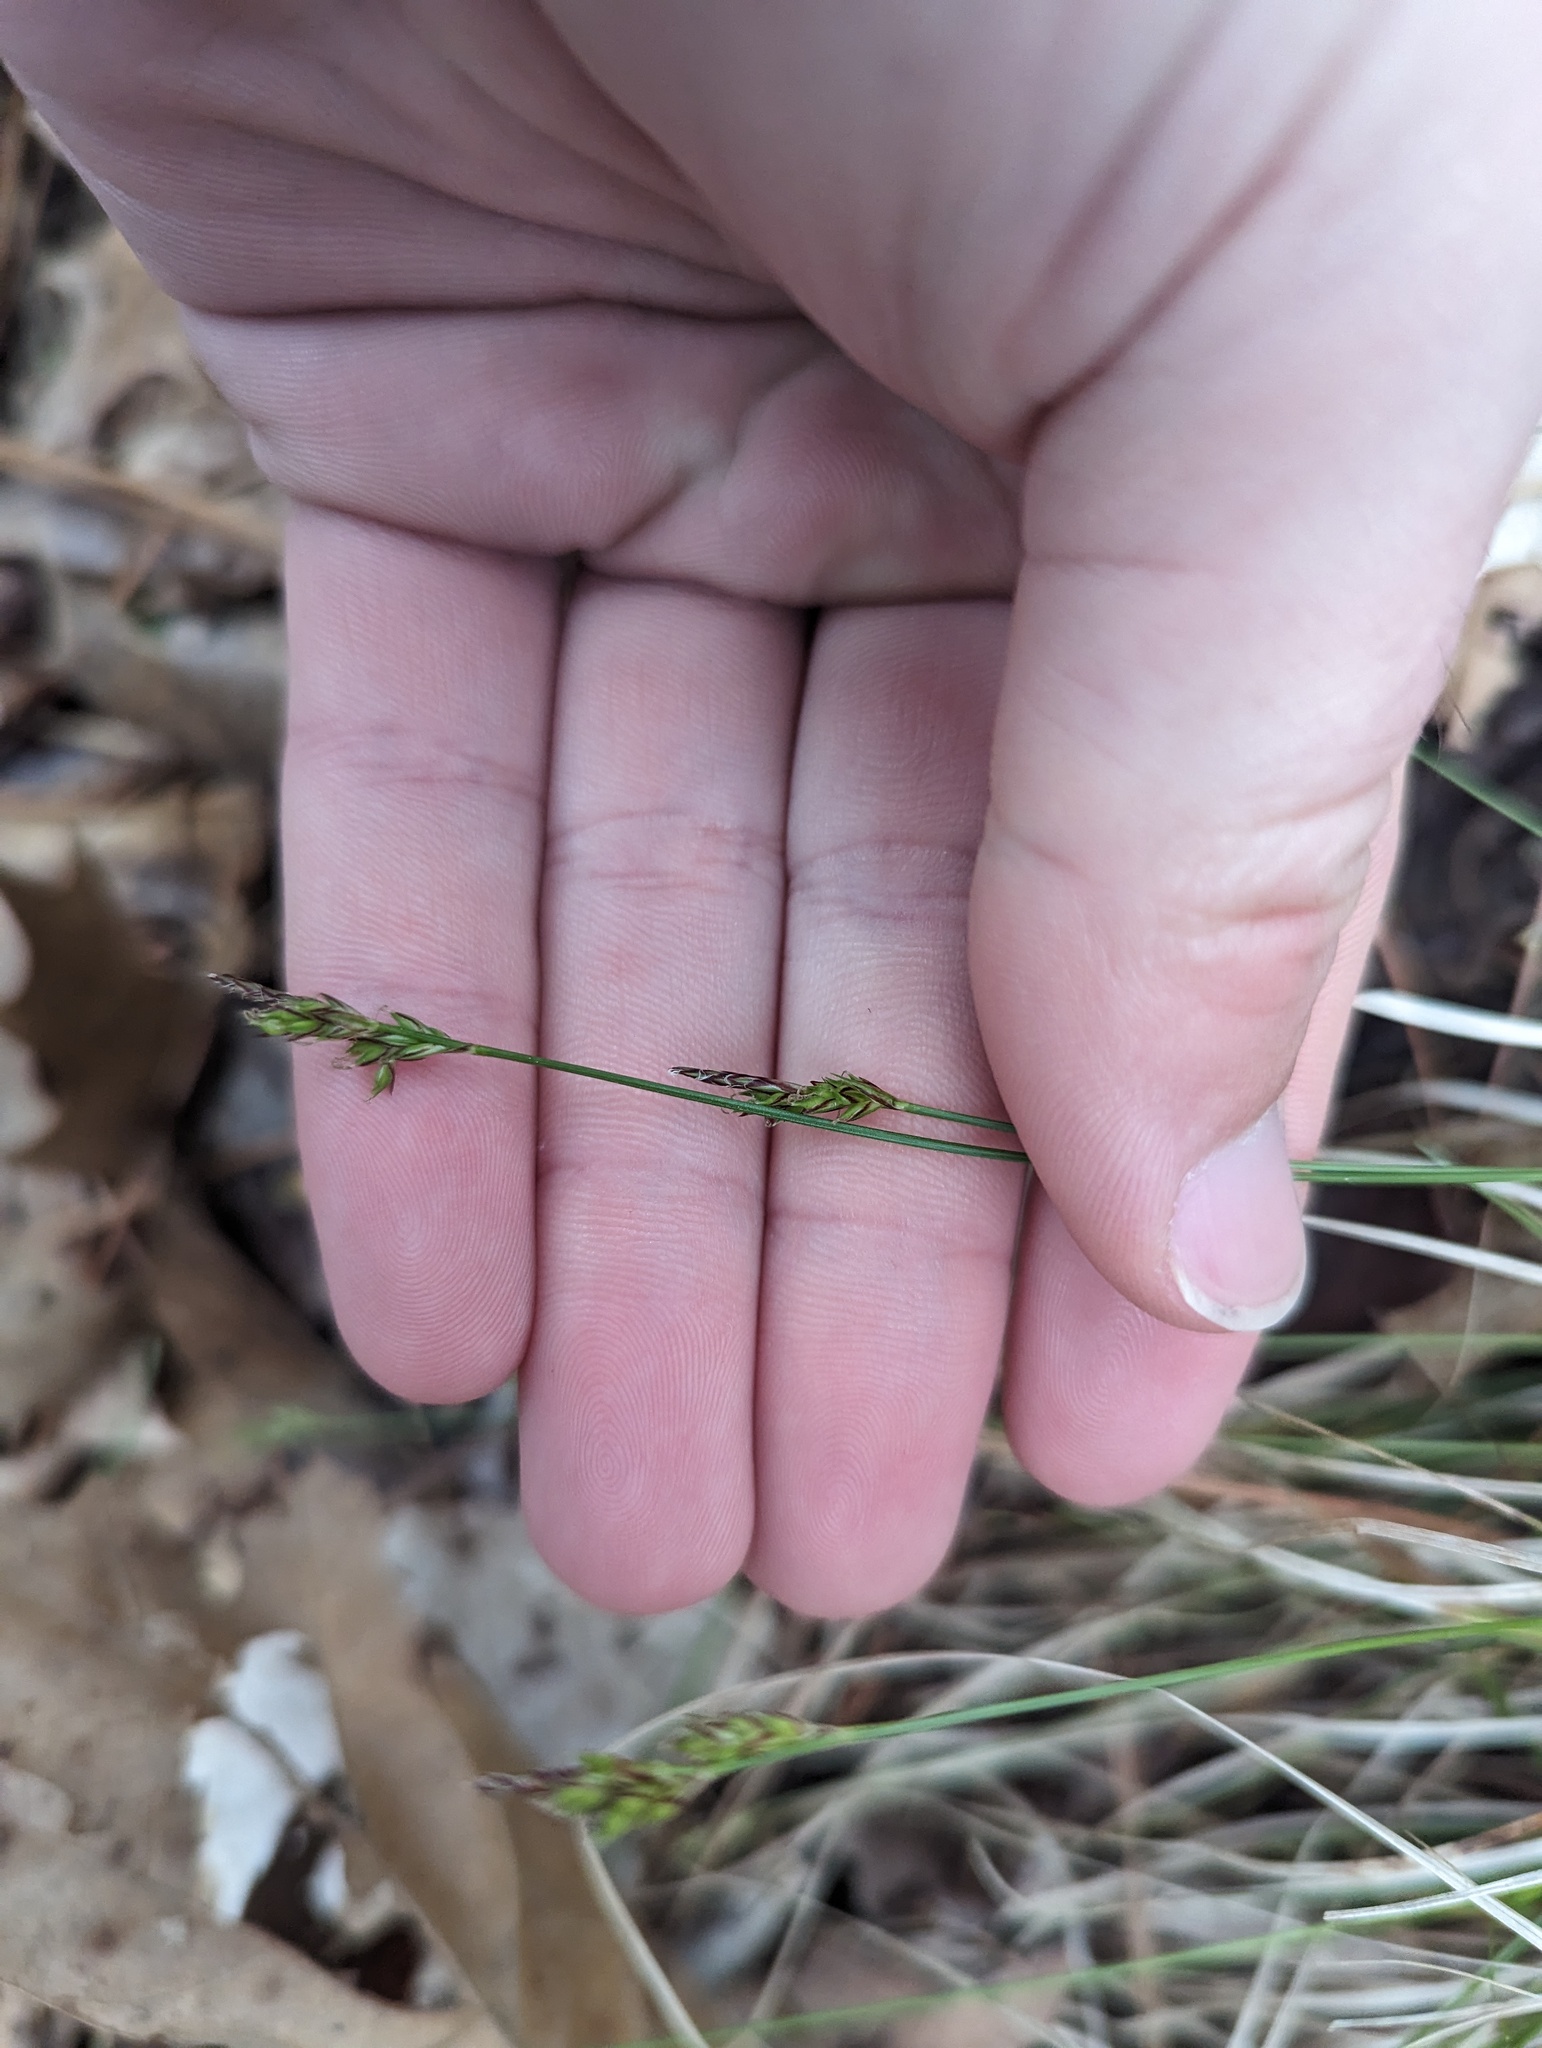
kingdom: Plantae
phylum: Tracheophyta
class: Liliopsida
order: Poales
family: Cyperaceae
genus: Carex
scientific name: Carex albicans
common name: Bellow-beaked sedge
